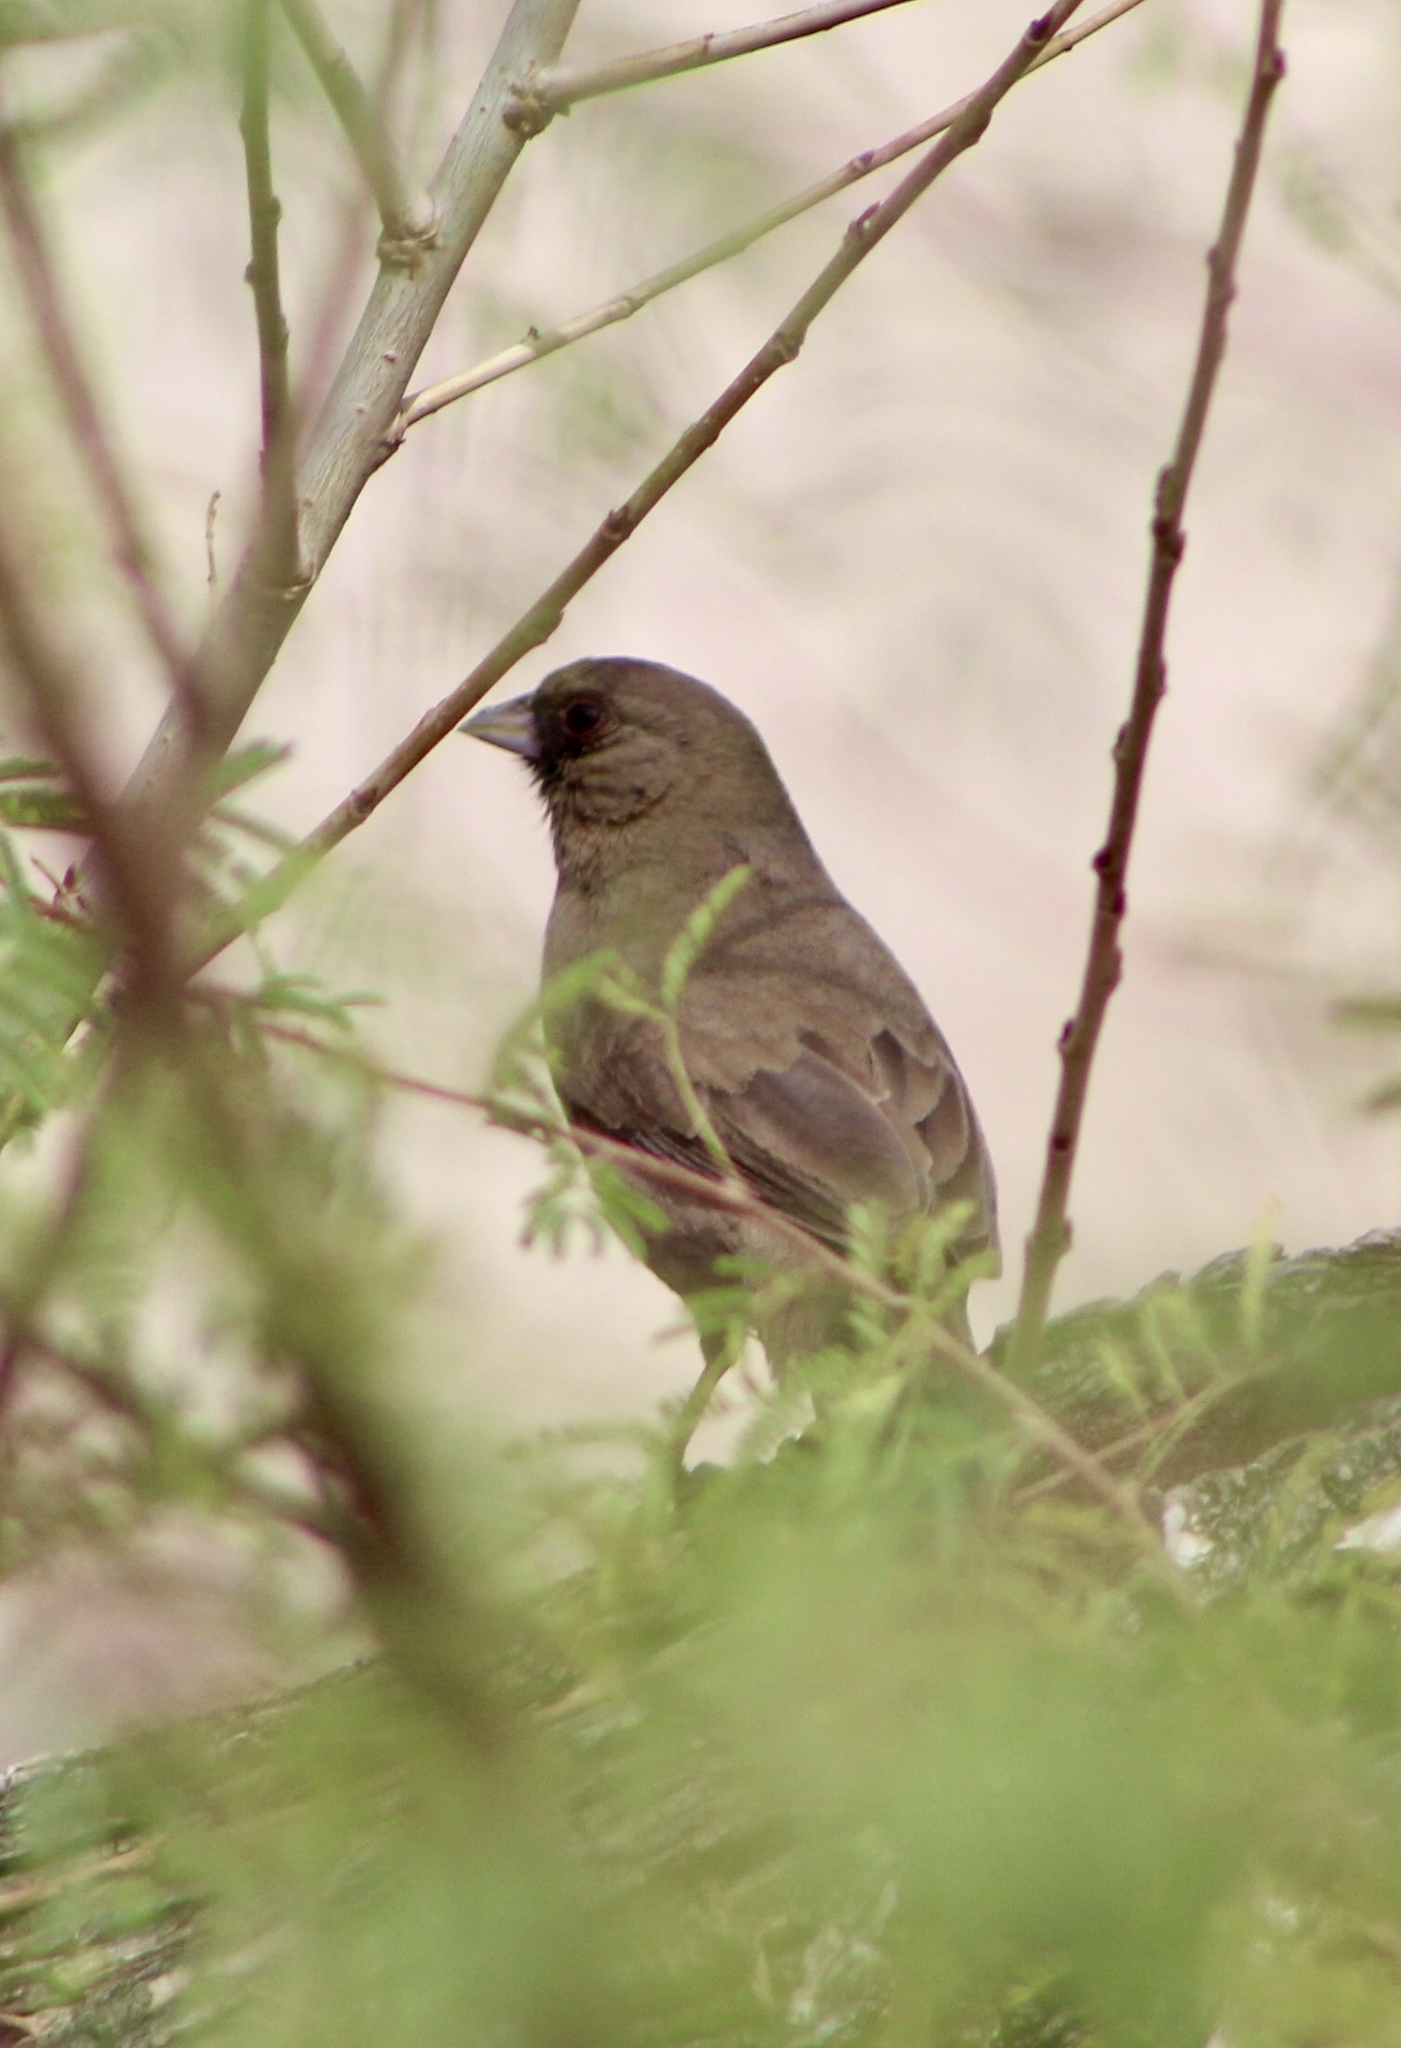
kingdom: Animalia
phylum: Chordata
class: Aves
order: Passeriformes
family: Passerellidae
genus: Melozone
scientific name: Melozone aberti
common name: Abert's towhee
